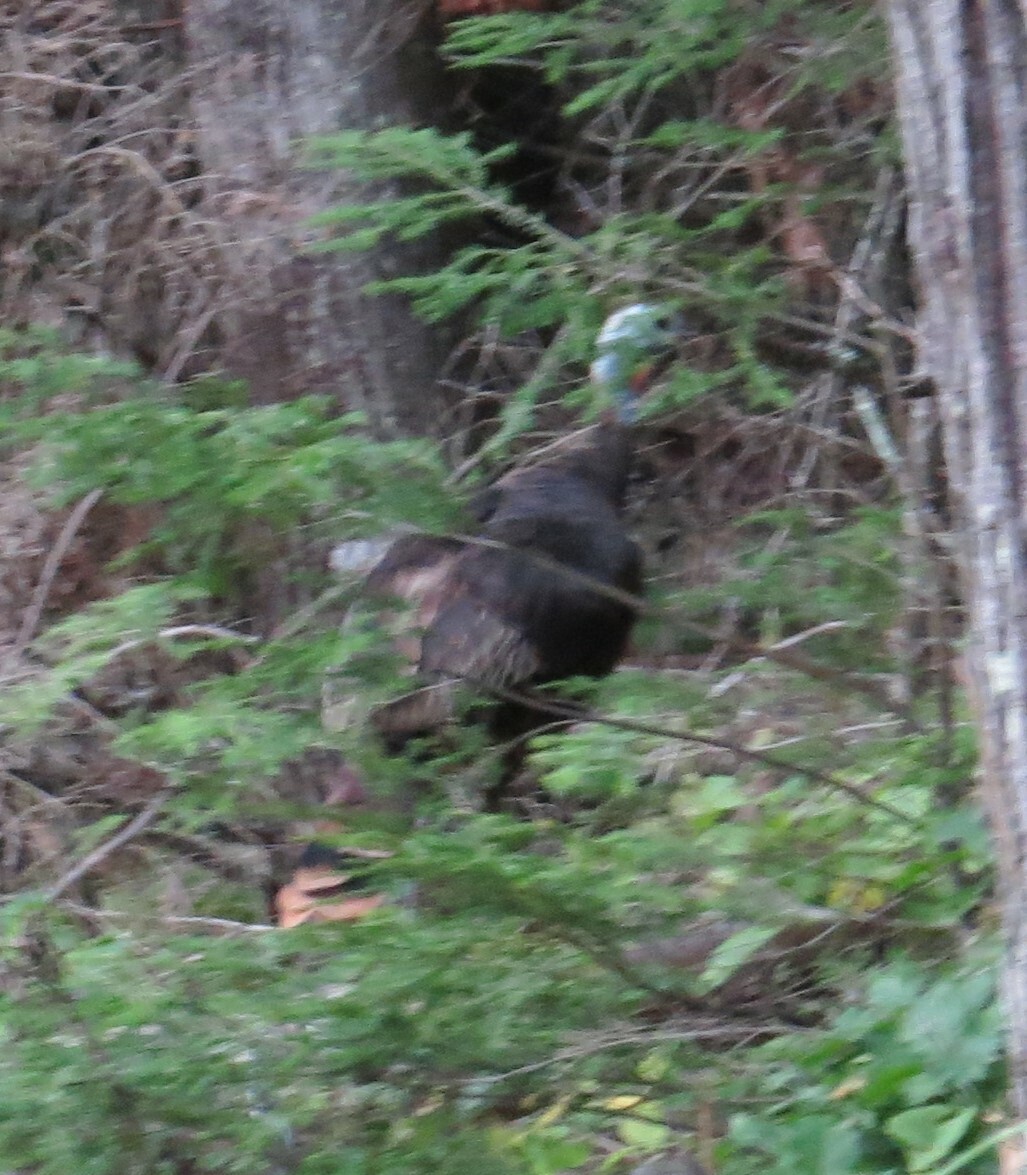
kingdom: Animalia
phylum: Chordata
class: Aves
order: Galliformes
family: Phasianidae
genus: Meleagris
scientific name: Meleagris gallopavo
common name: Wild turkey
